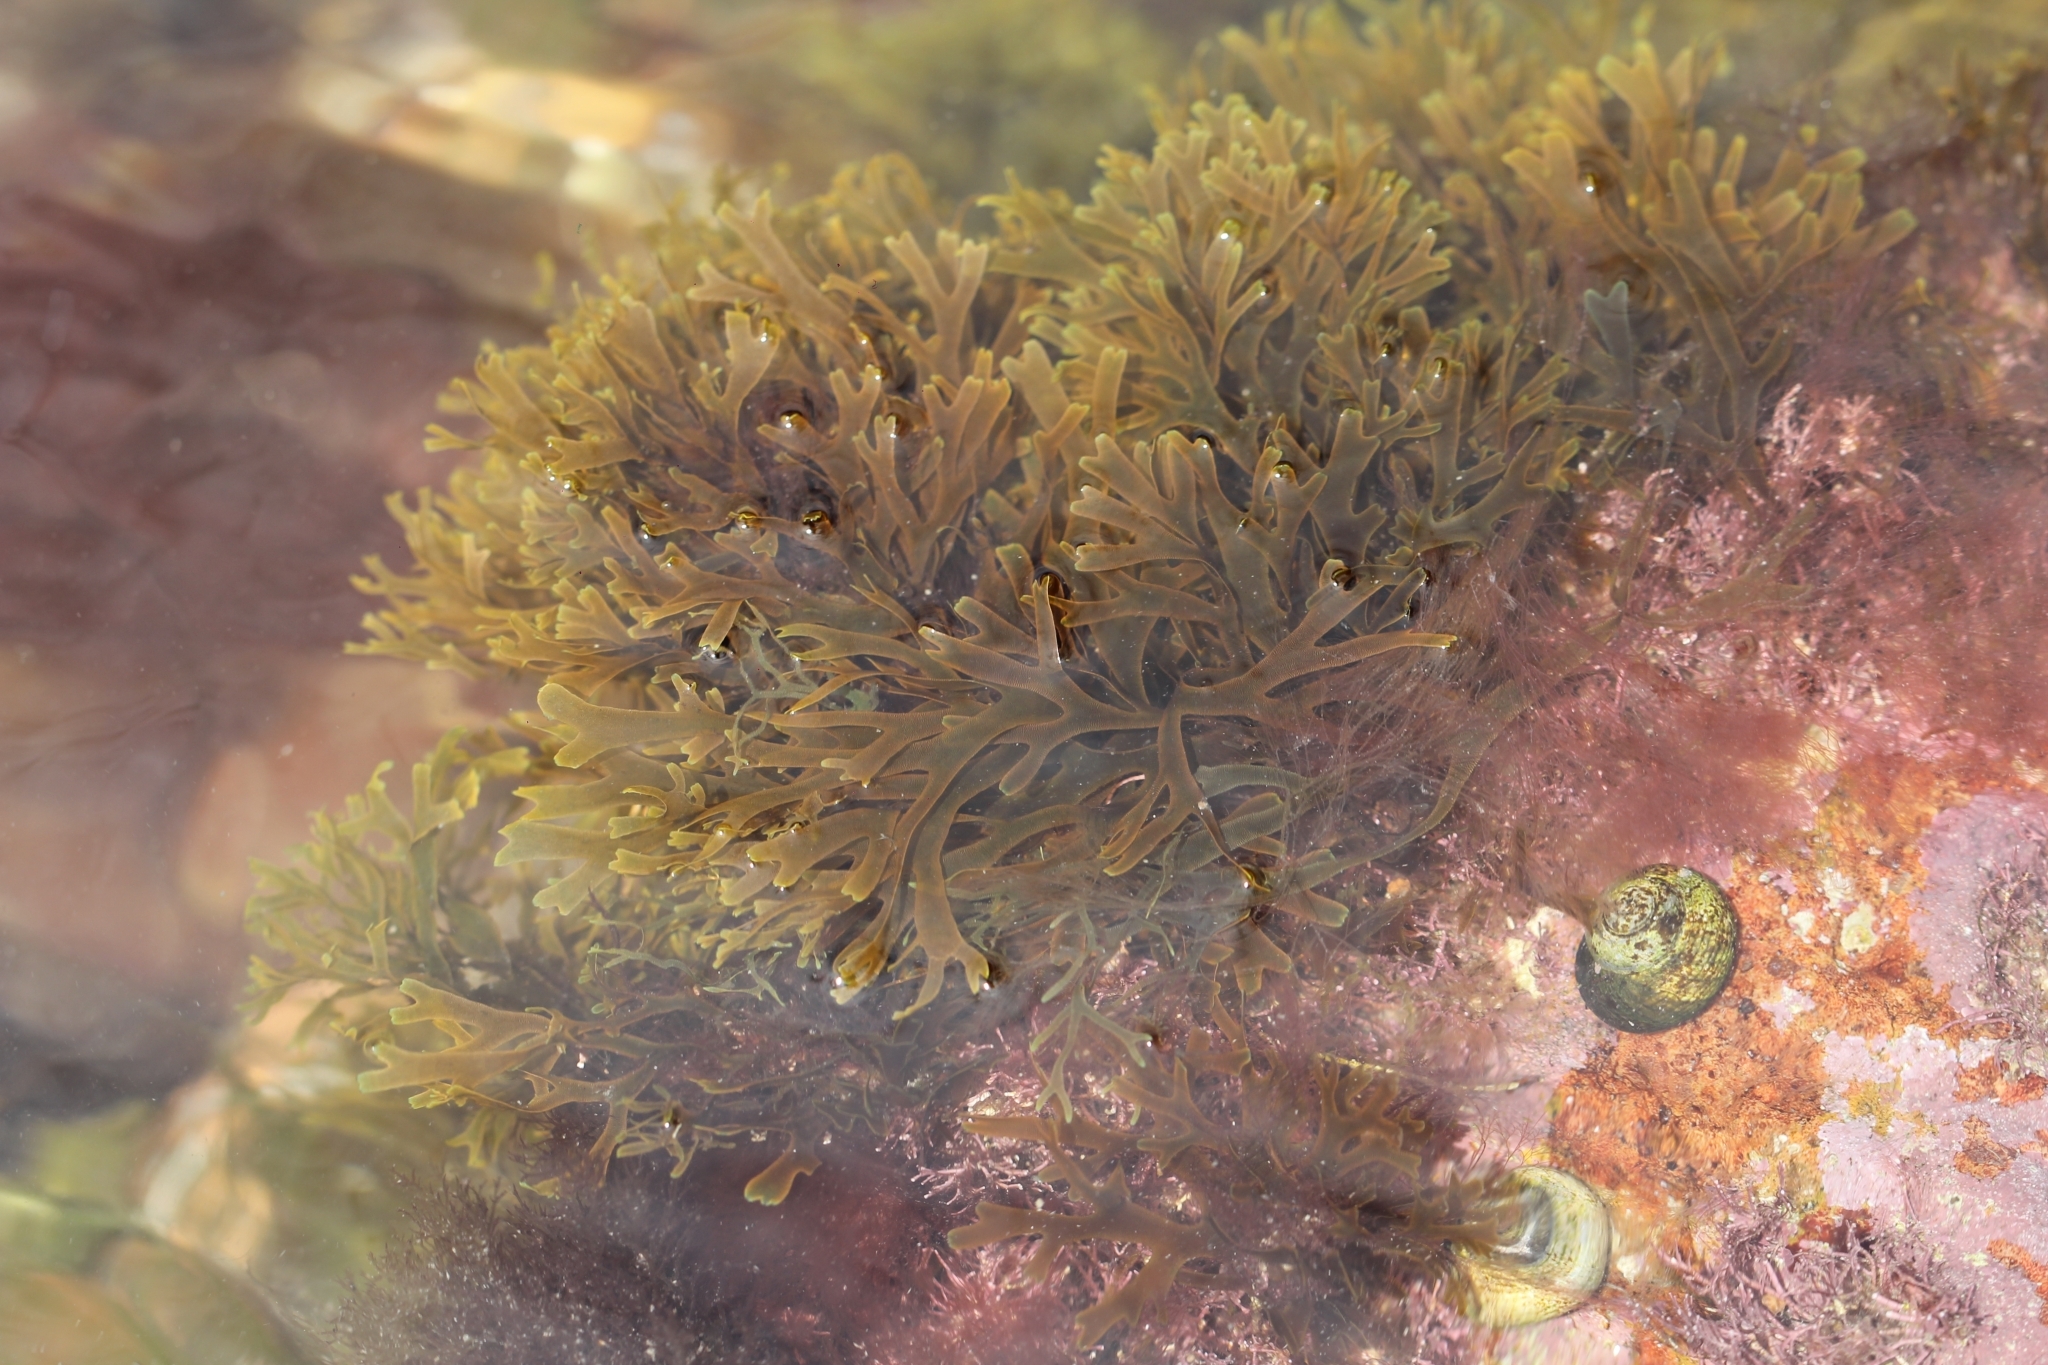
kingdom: Chromista
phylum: Ochrophyta
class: Phaeophyceae
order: Dictyotales
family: Dictyotaceae
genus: Dictyota
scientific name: Dictyota dichotoma
